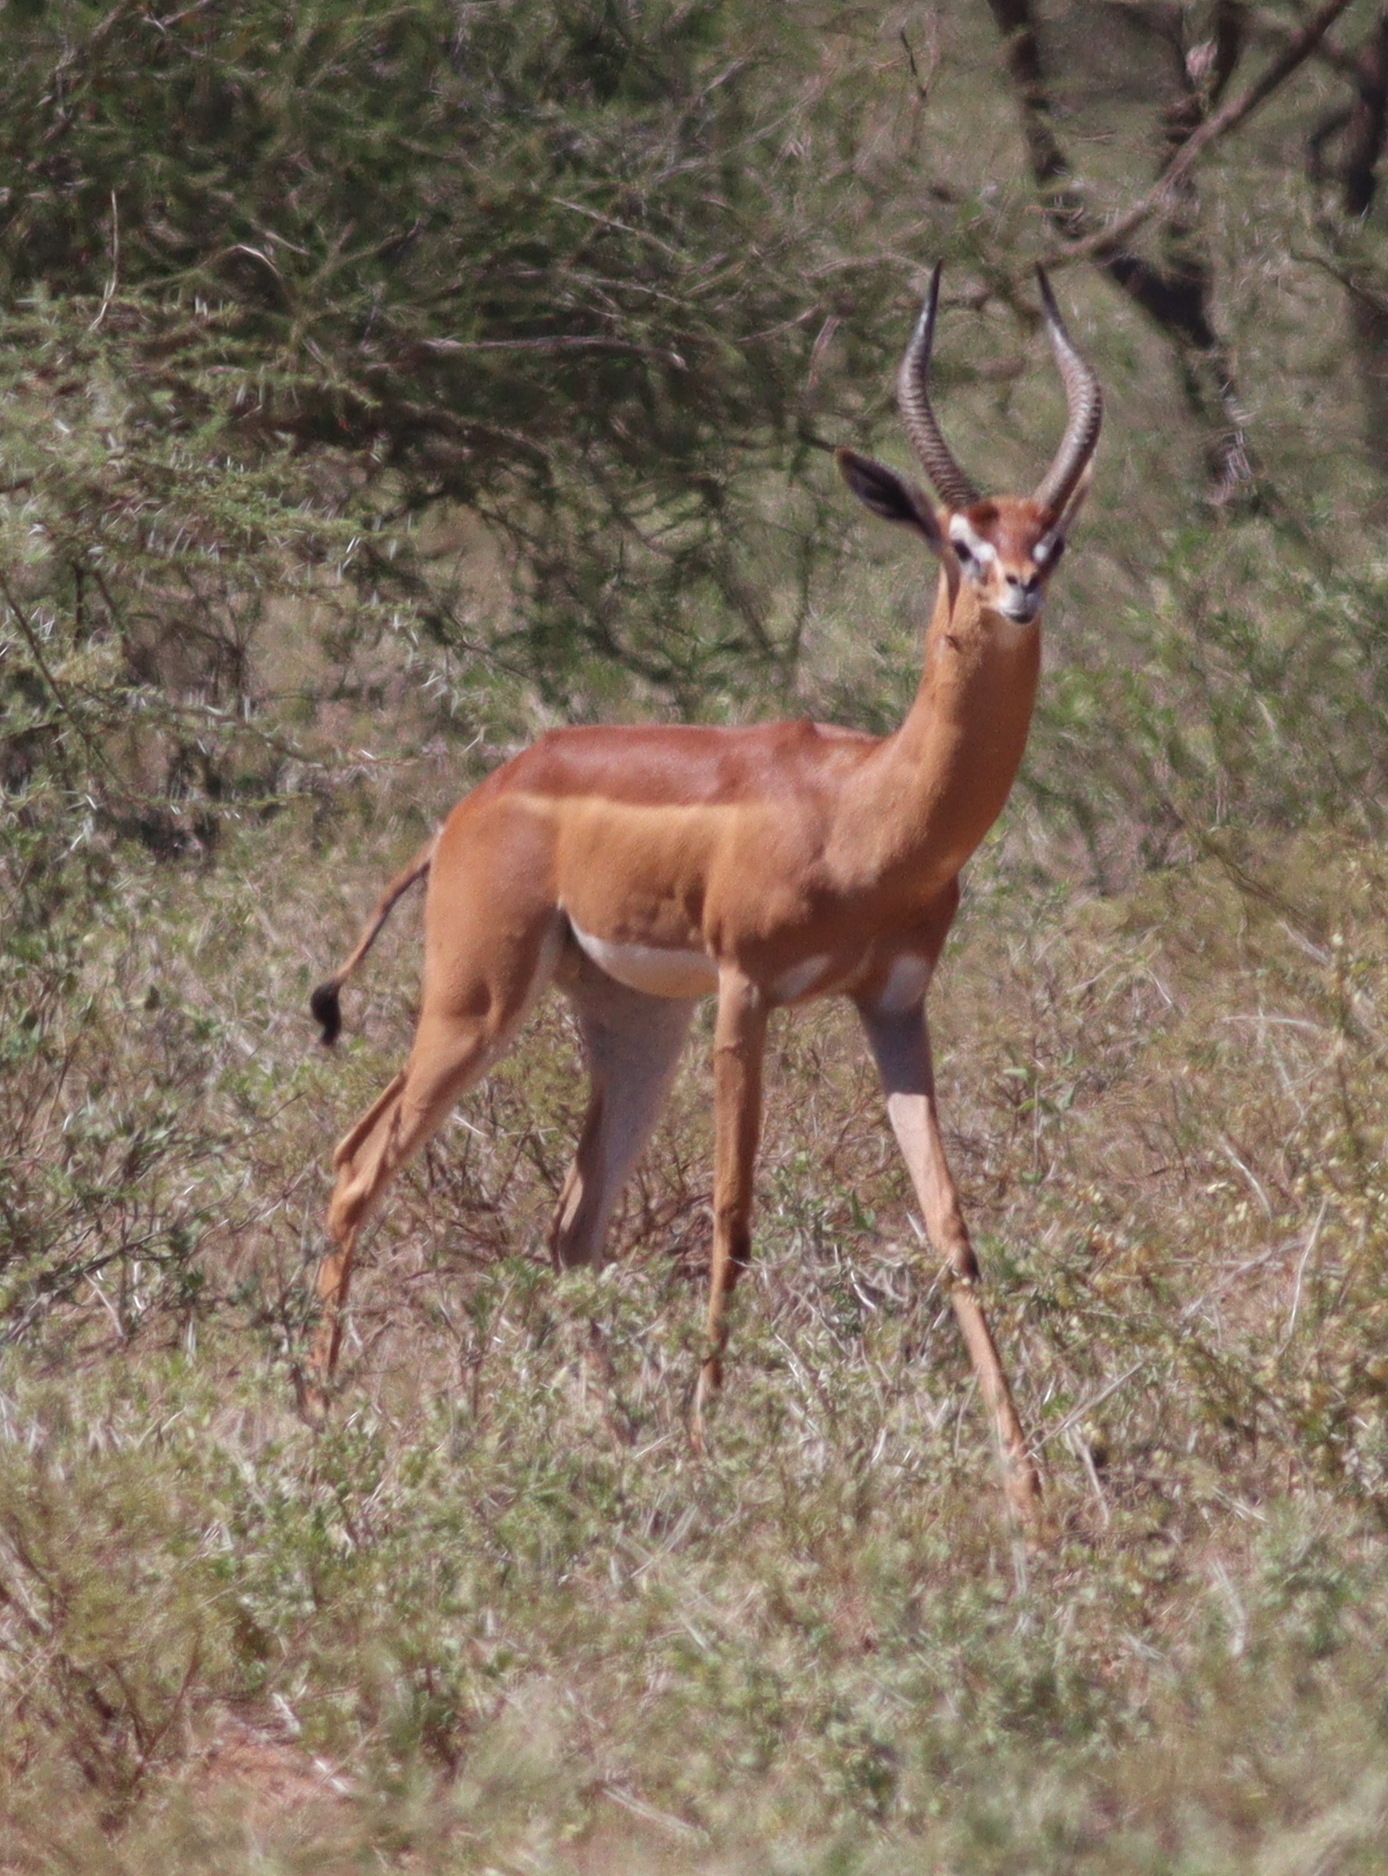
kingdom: Animalia
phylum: Chordata
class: Mammalia
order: Artiodactyla
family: Bovidae
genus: Litocranius
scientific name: Litocranius walleri
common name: Gerenuk
